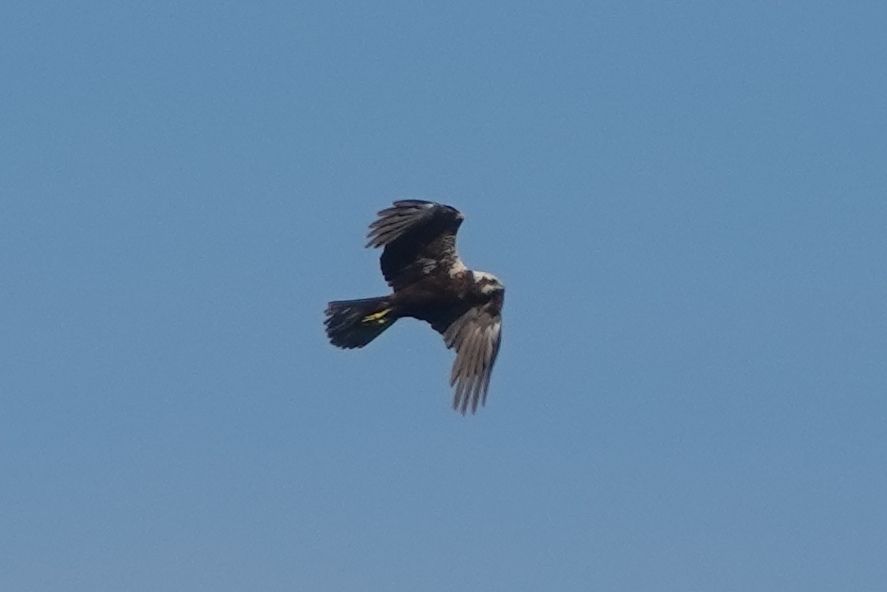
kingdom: Animalia
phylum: Chordata
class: Aves
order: Accipitriformes
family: Accipitridae
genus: Circus
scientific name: Circus aeruginosus
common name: Western marsh harrier
